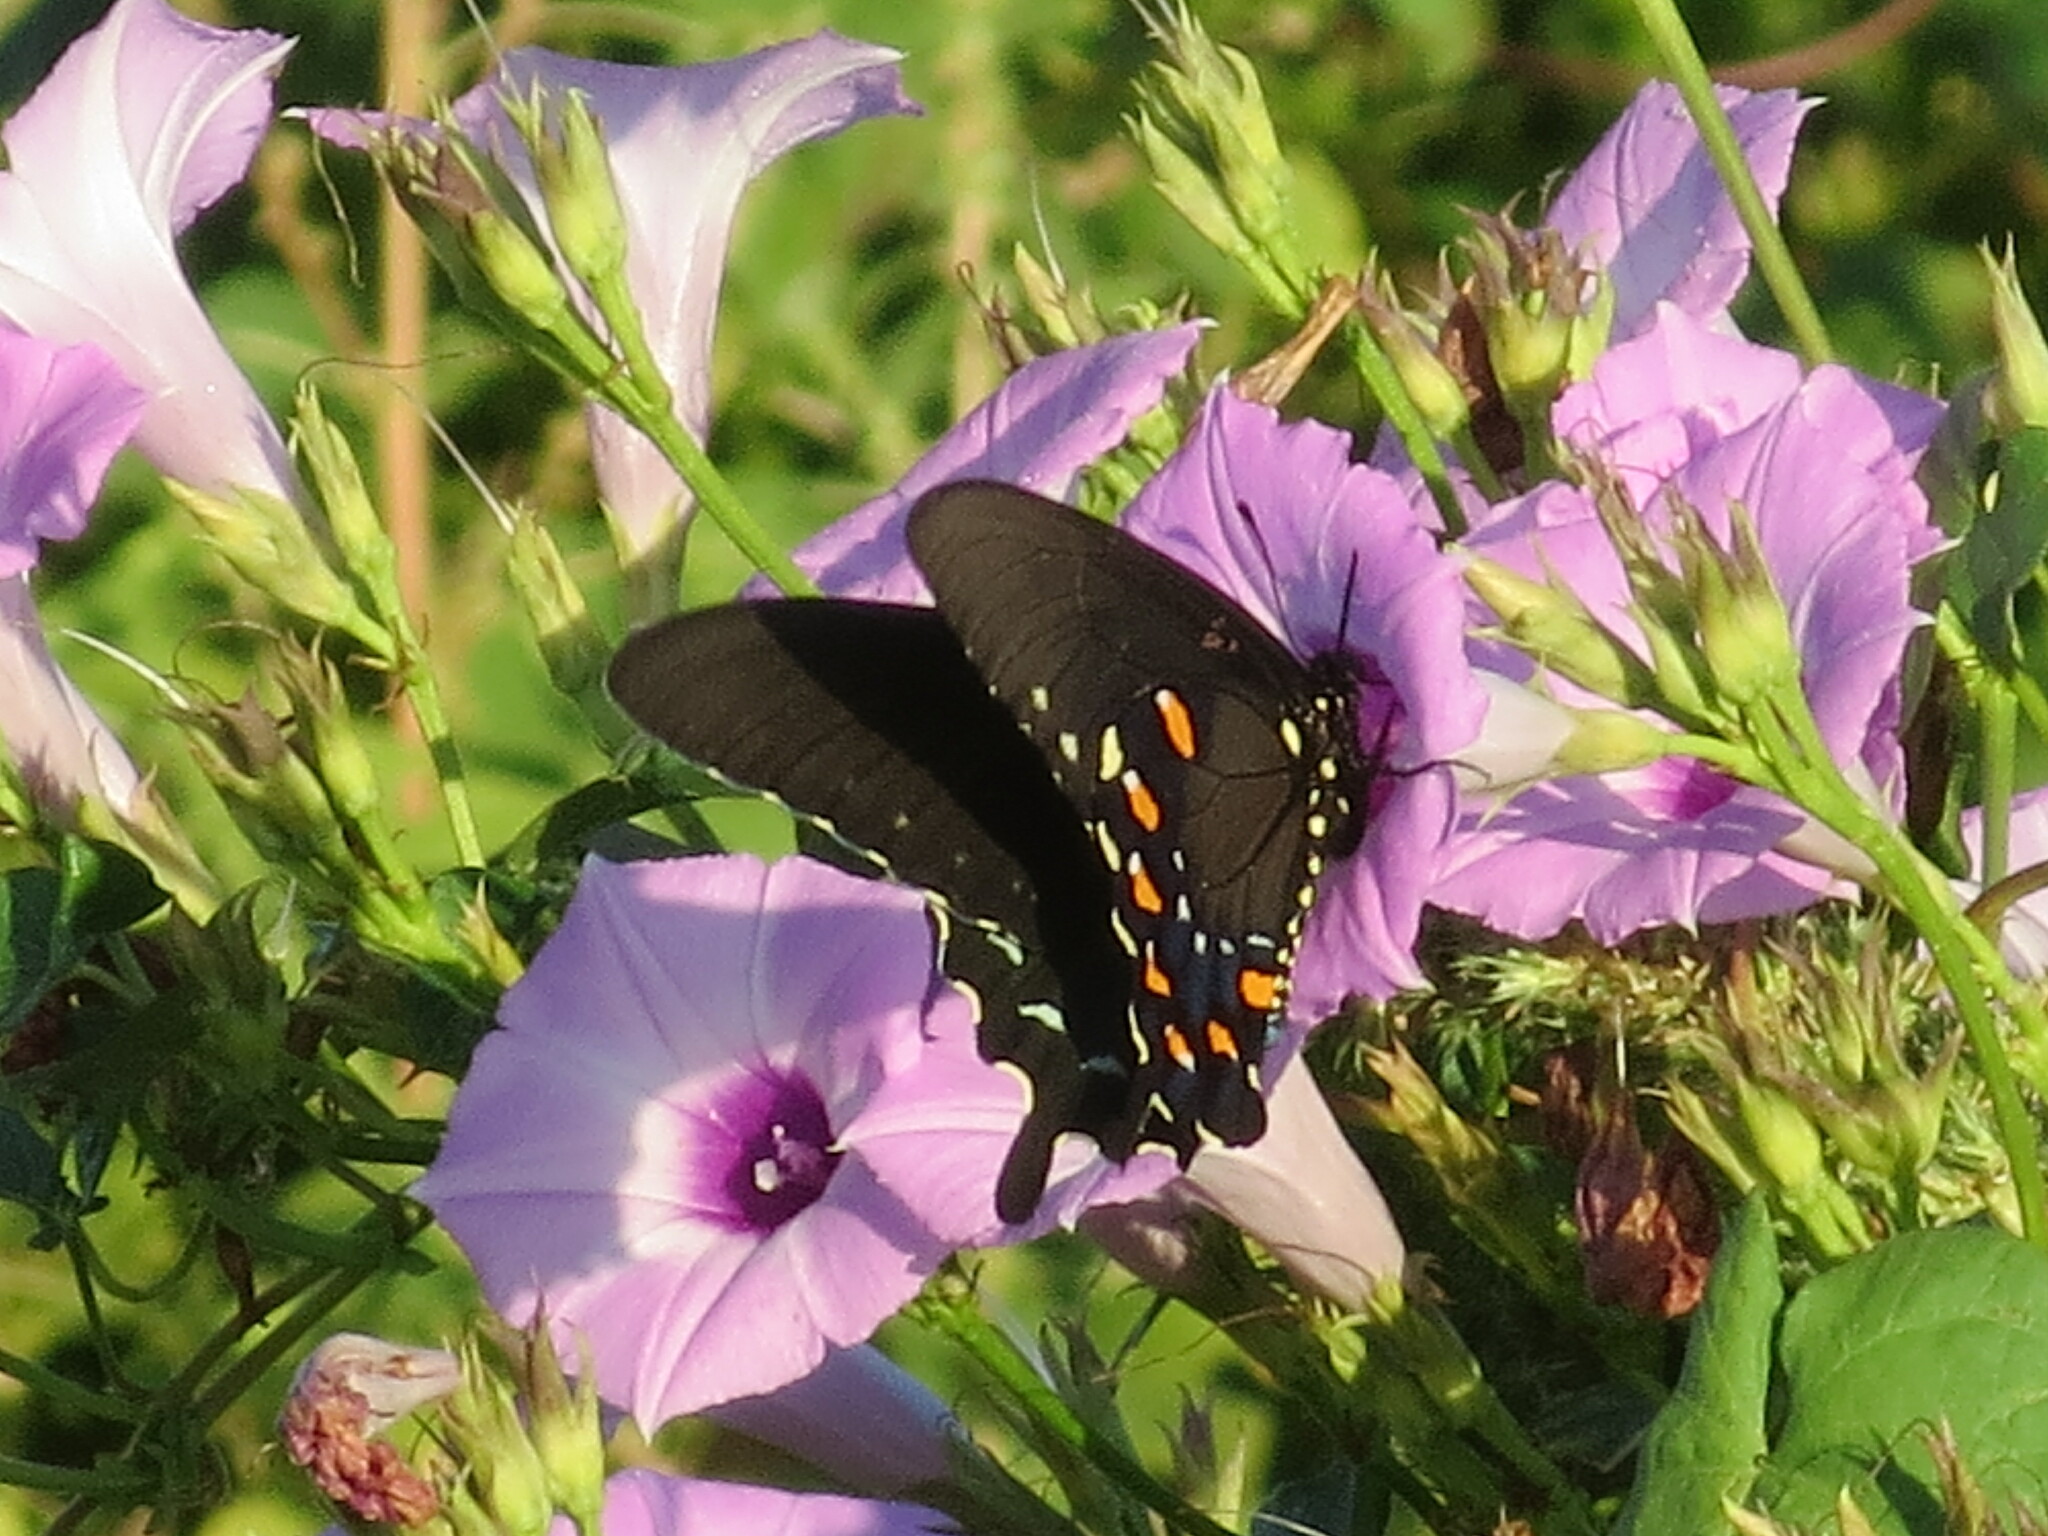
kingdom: Animalia
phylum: Arthropoda
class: Insecta
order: Lepidoptera
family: Papilionidae
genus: Battus
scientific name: Battus philenor
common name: Pipevine swallowtail
